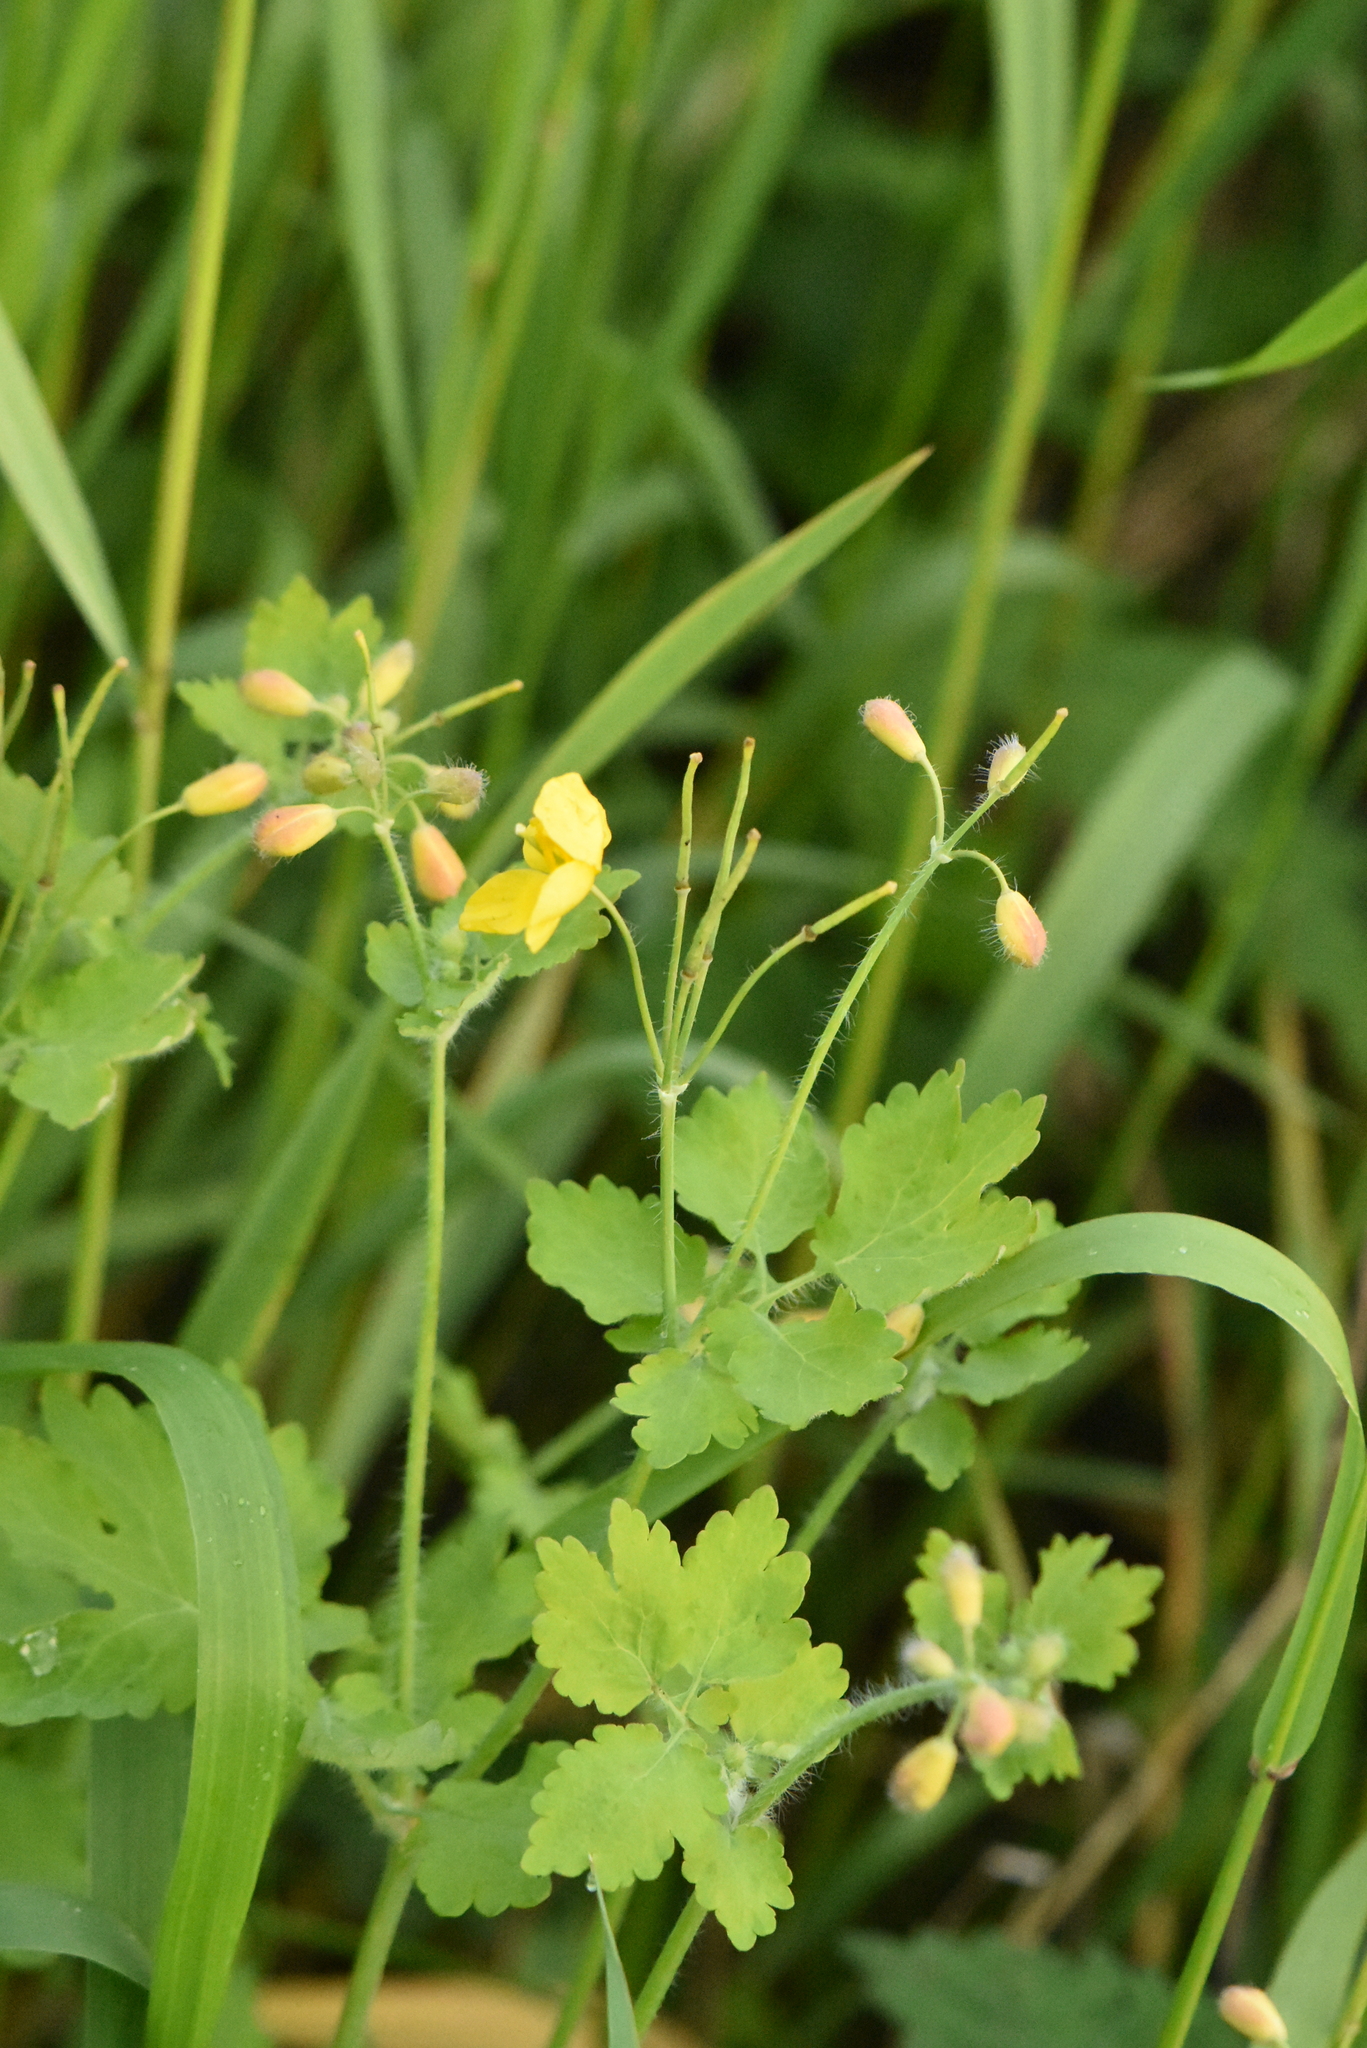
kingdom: Plantae
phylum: Tracheophyta
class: Magnoliopsida
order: Ranunculales
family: Papaveraceae
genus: Chelidonium
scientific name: Chelidonium majus
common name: Greater celandine
